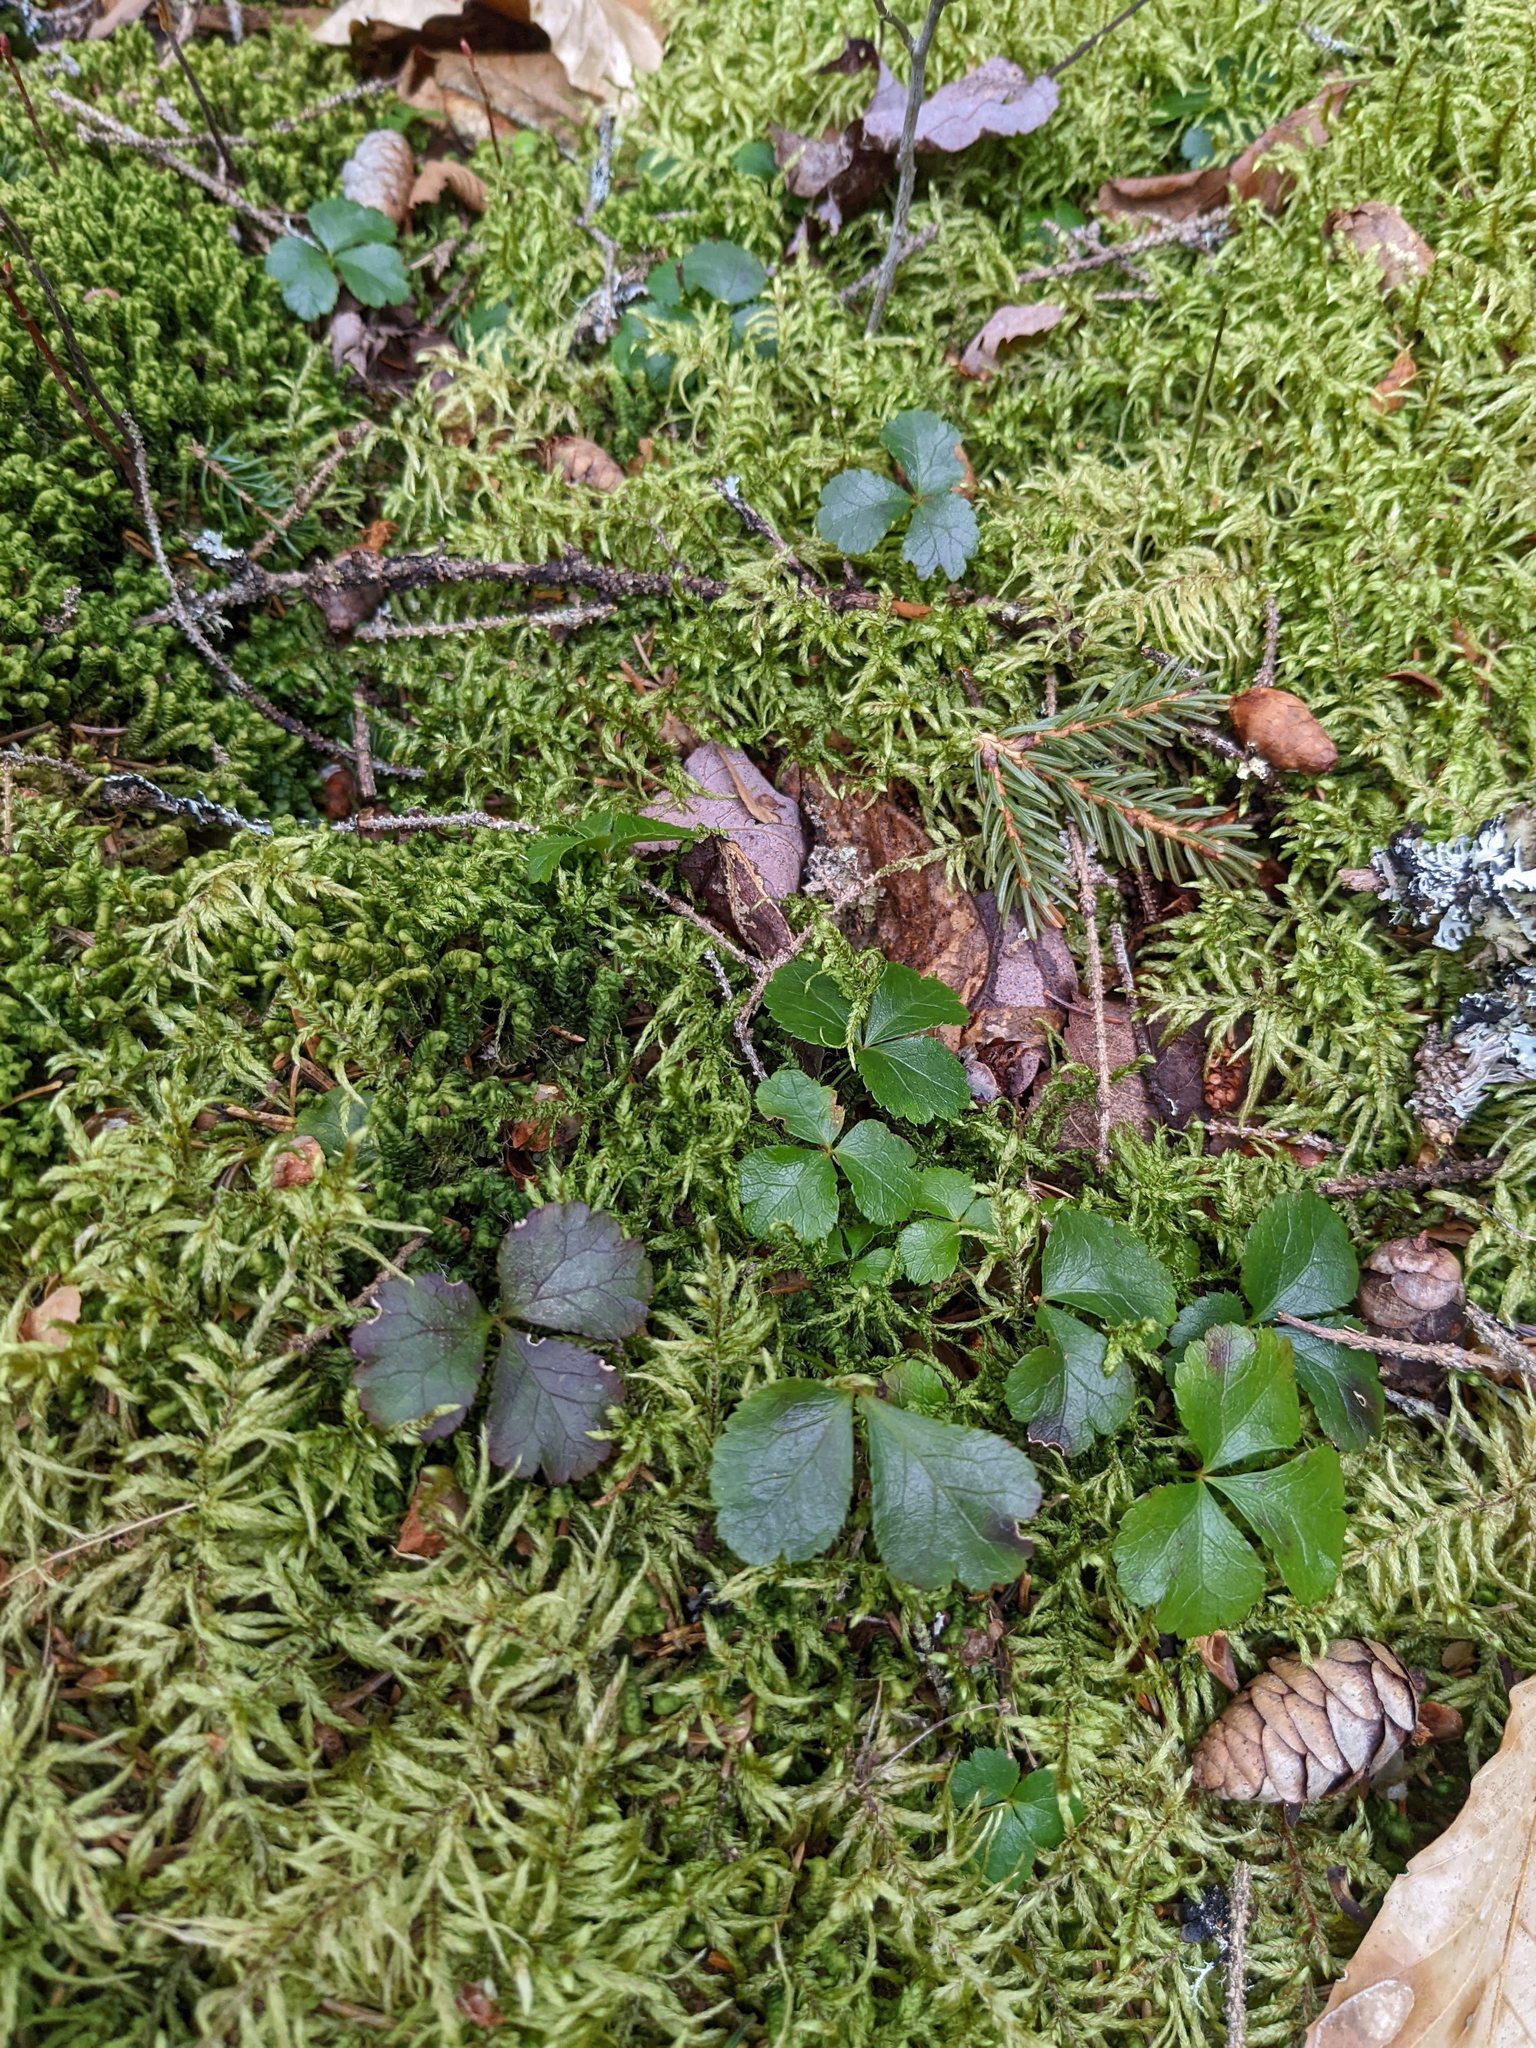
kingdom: Plantae
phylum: Tracheophyta
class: Magnoliopsida
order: Ranunculales
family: Ranunculaceae
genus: Coptis
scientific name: Coptis trifolia
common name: Canker-root
